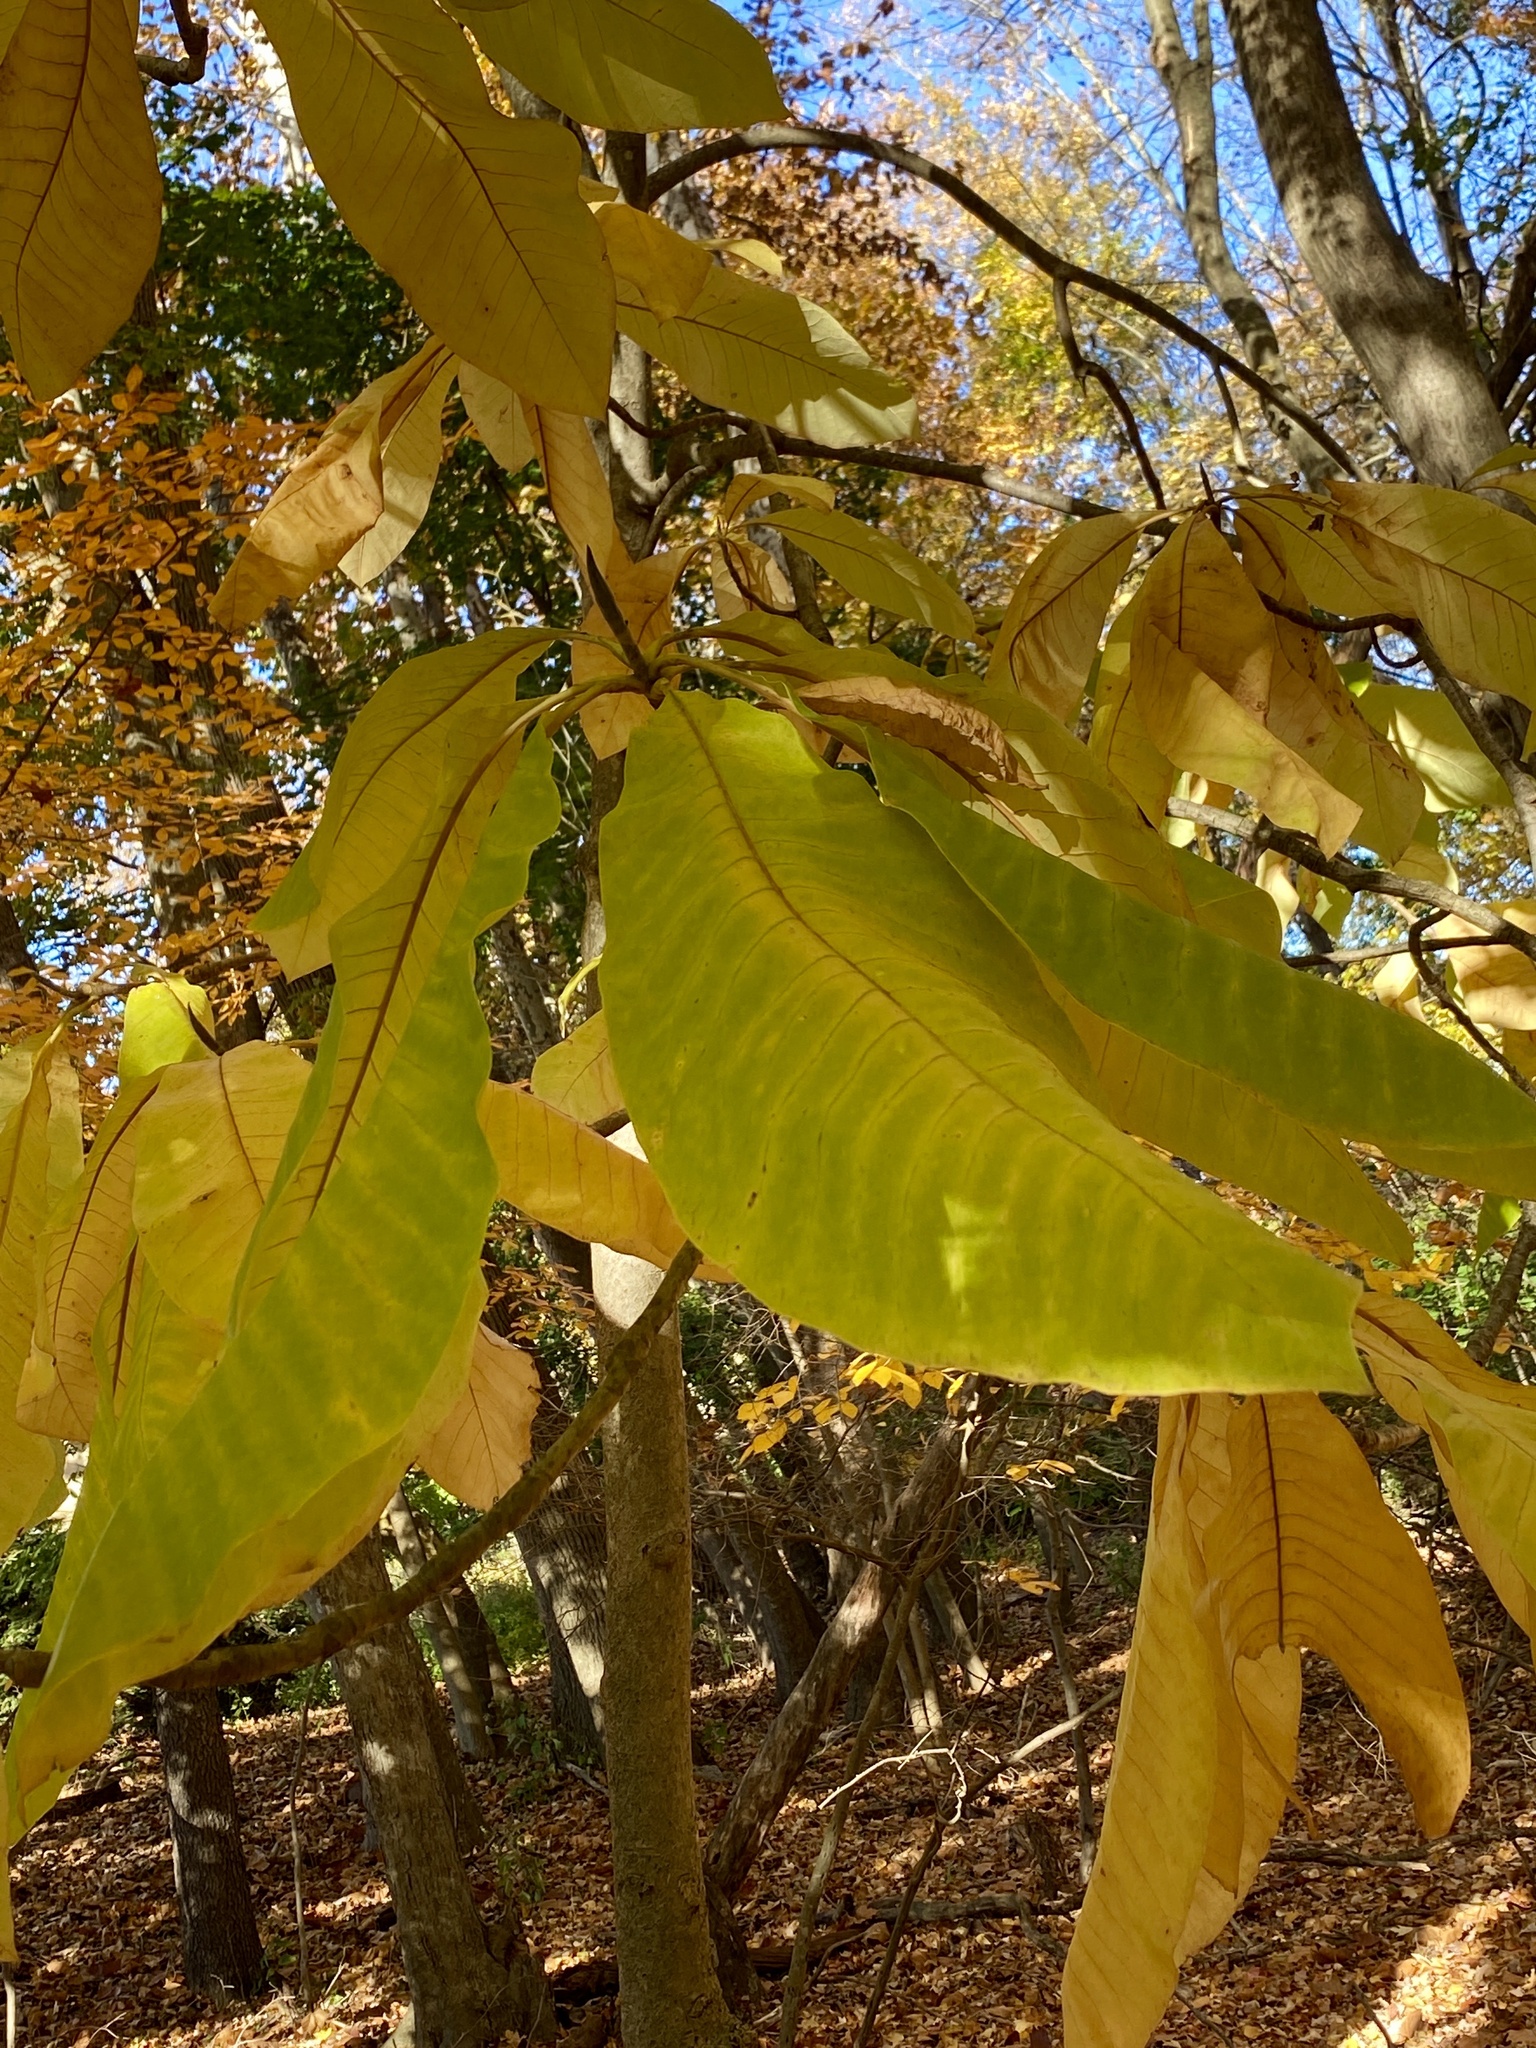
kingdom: Plantae
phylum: Tracheophyta
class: Magnoliopsida
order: Magnoliales
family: Magnoliaceae
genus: Magnolia
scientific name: Magnolia tripetala
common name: Umbrella magnolia
